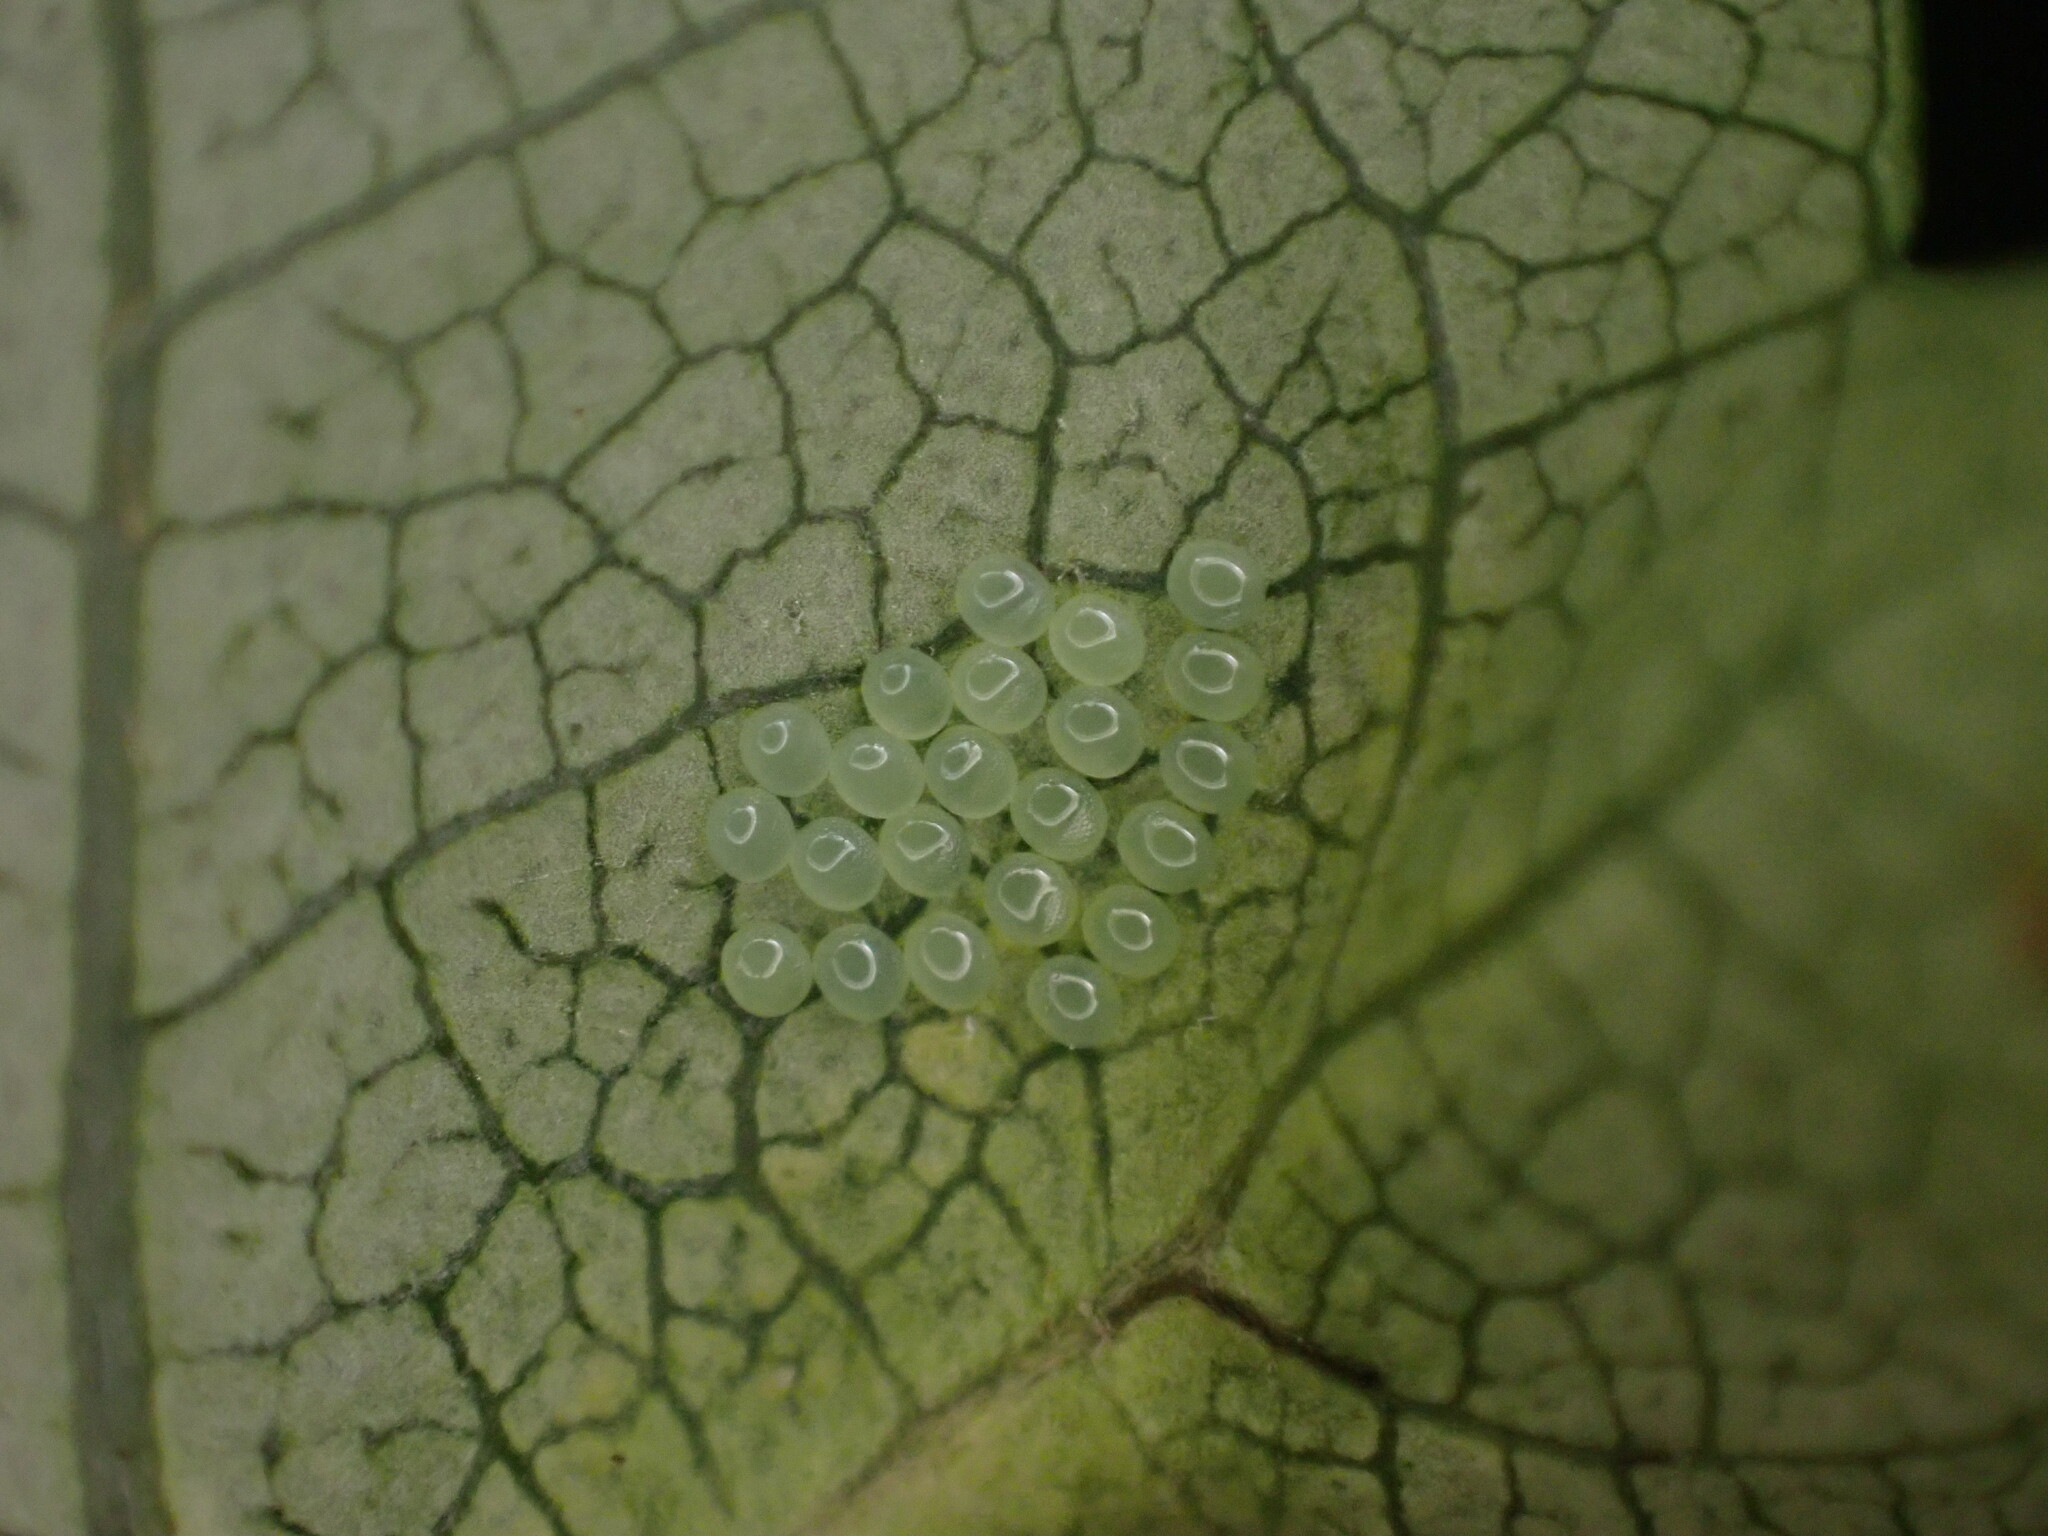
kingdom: Animalia
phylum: Arthropoda
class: Insecta
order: Lepidoptera
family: Geometridae
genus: Epiphryne
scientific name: Epiphryne undosata
